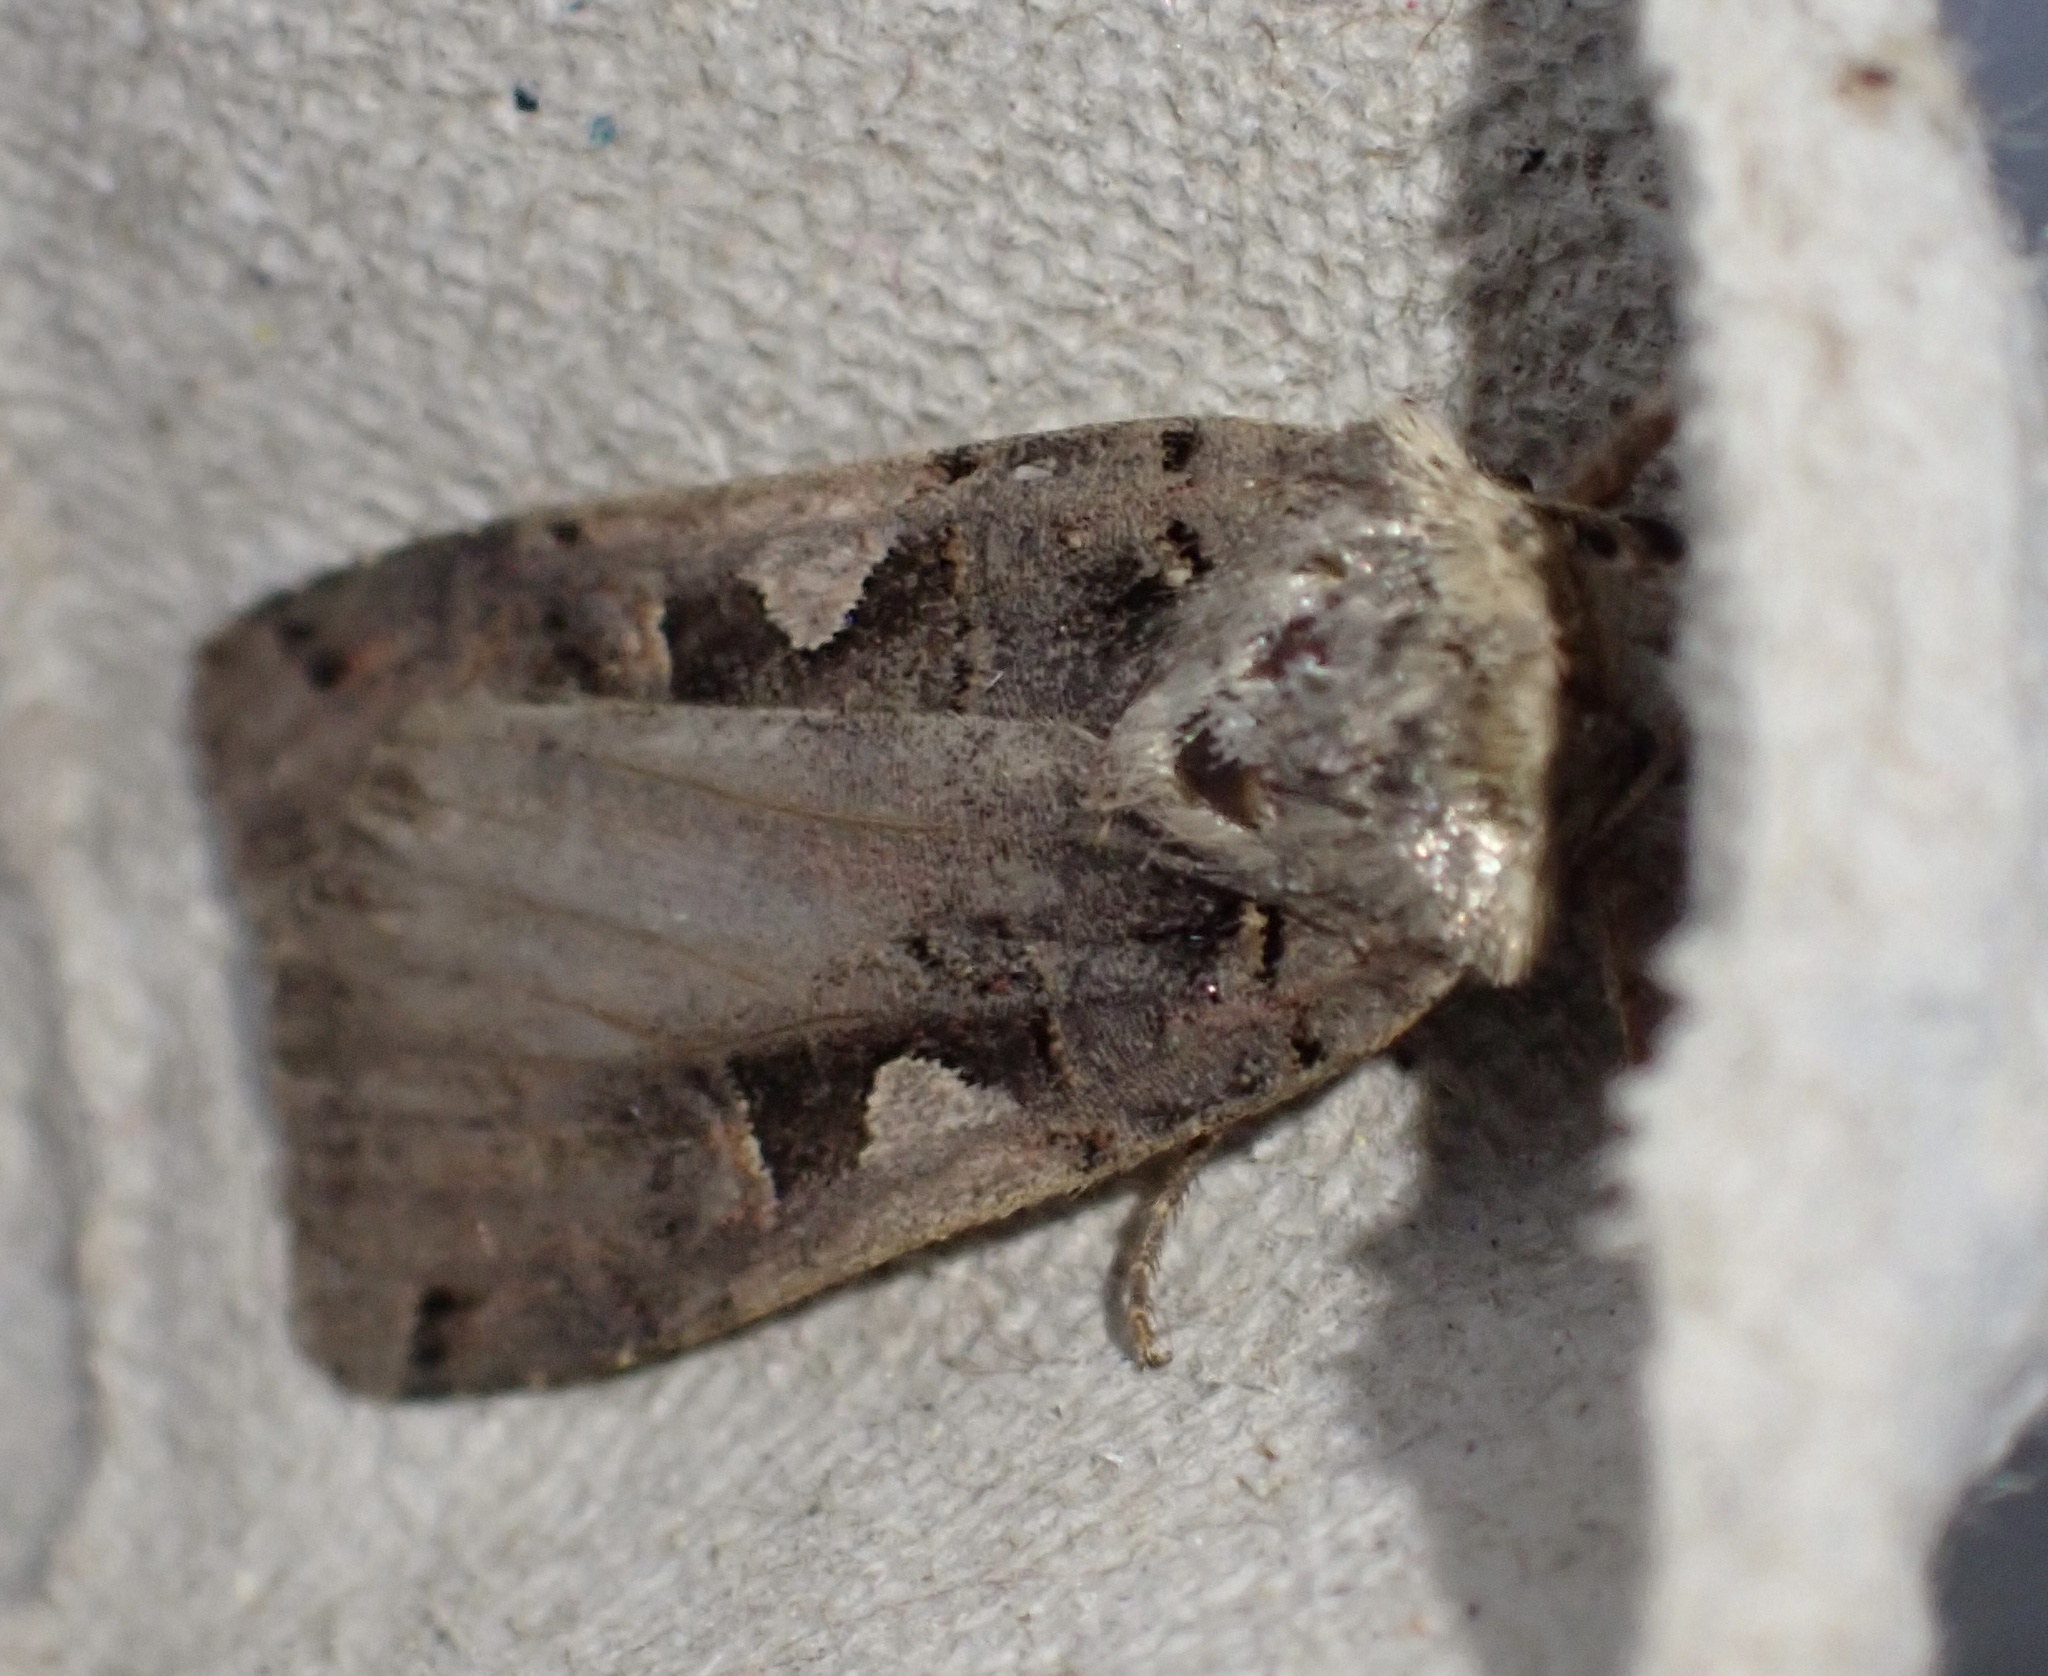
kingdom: Animalia
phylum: Arthropoda
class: Insecta
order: Lepidoptera
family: Noctuidae
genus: Xestia
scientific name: Xestia c-nigrum
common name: Setaceous hebrew character
